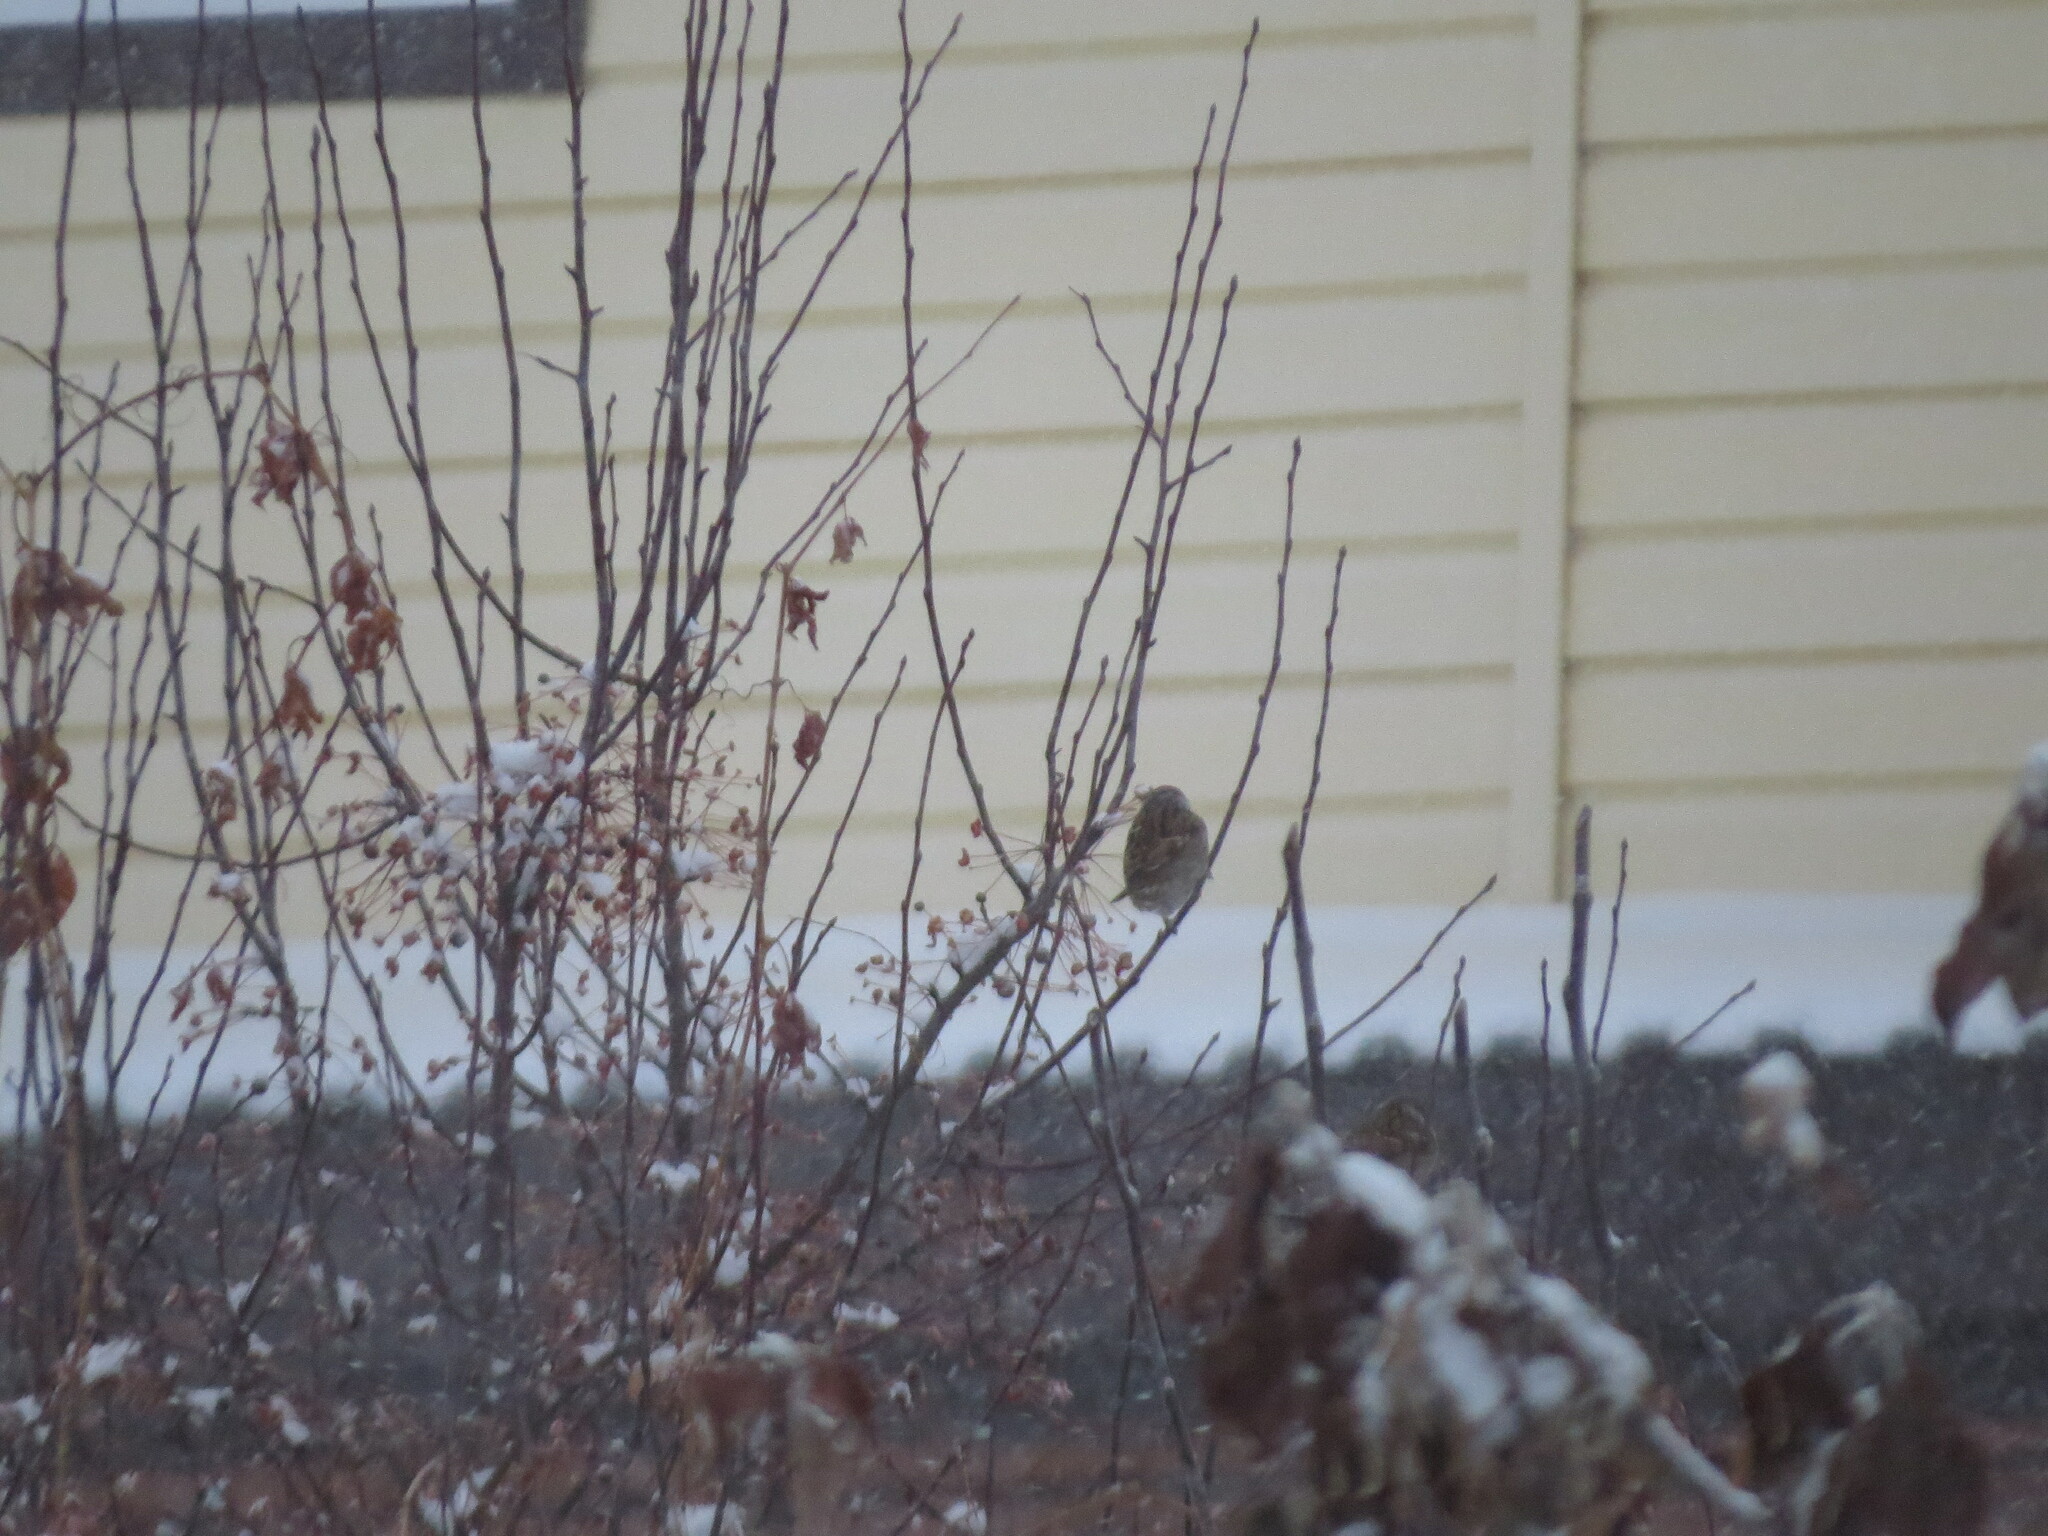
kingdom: Animalia
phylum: Chordata
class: Aves
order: Passeriformes
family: Passeridae
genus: Passer
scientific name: Passer montanus
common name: Eurasian tree sparrow
